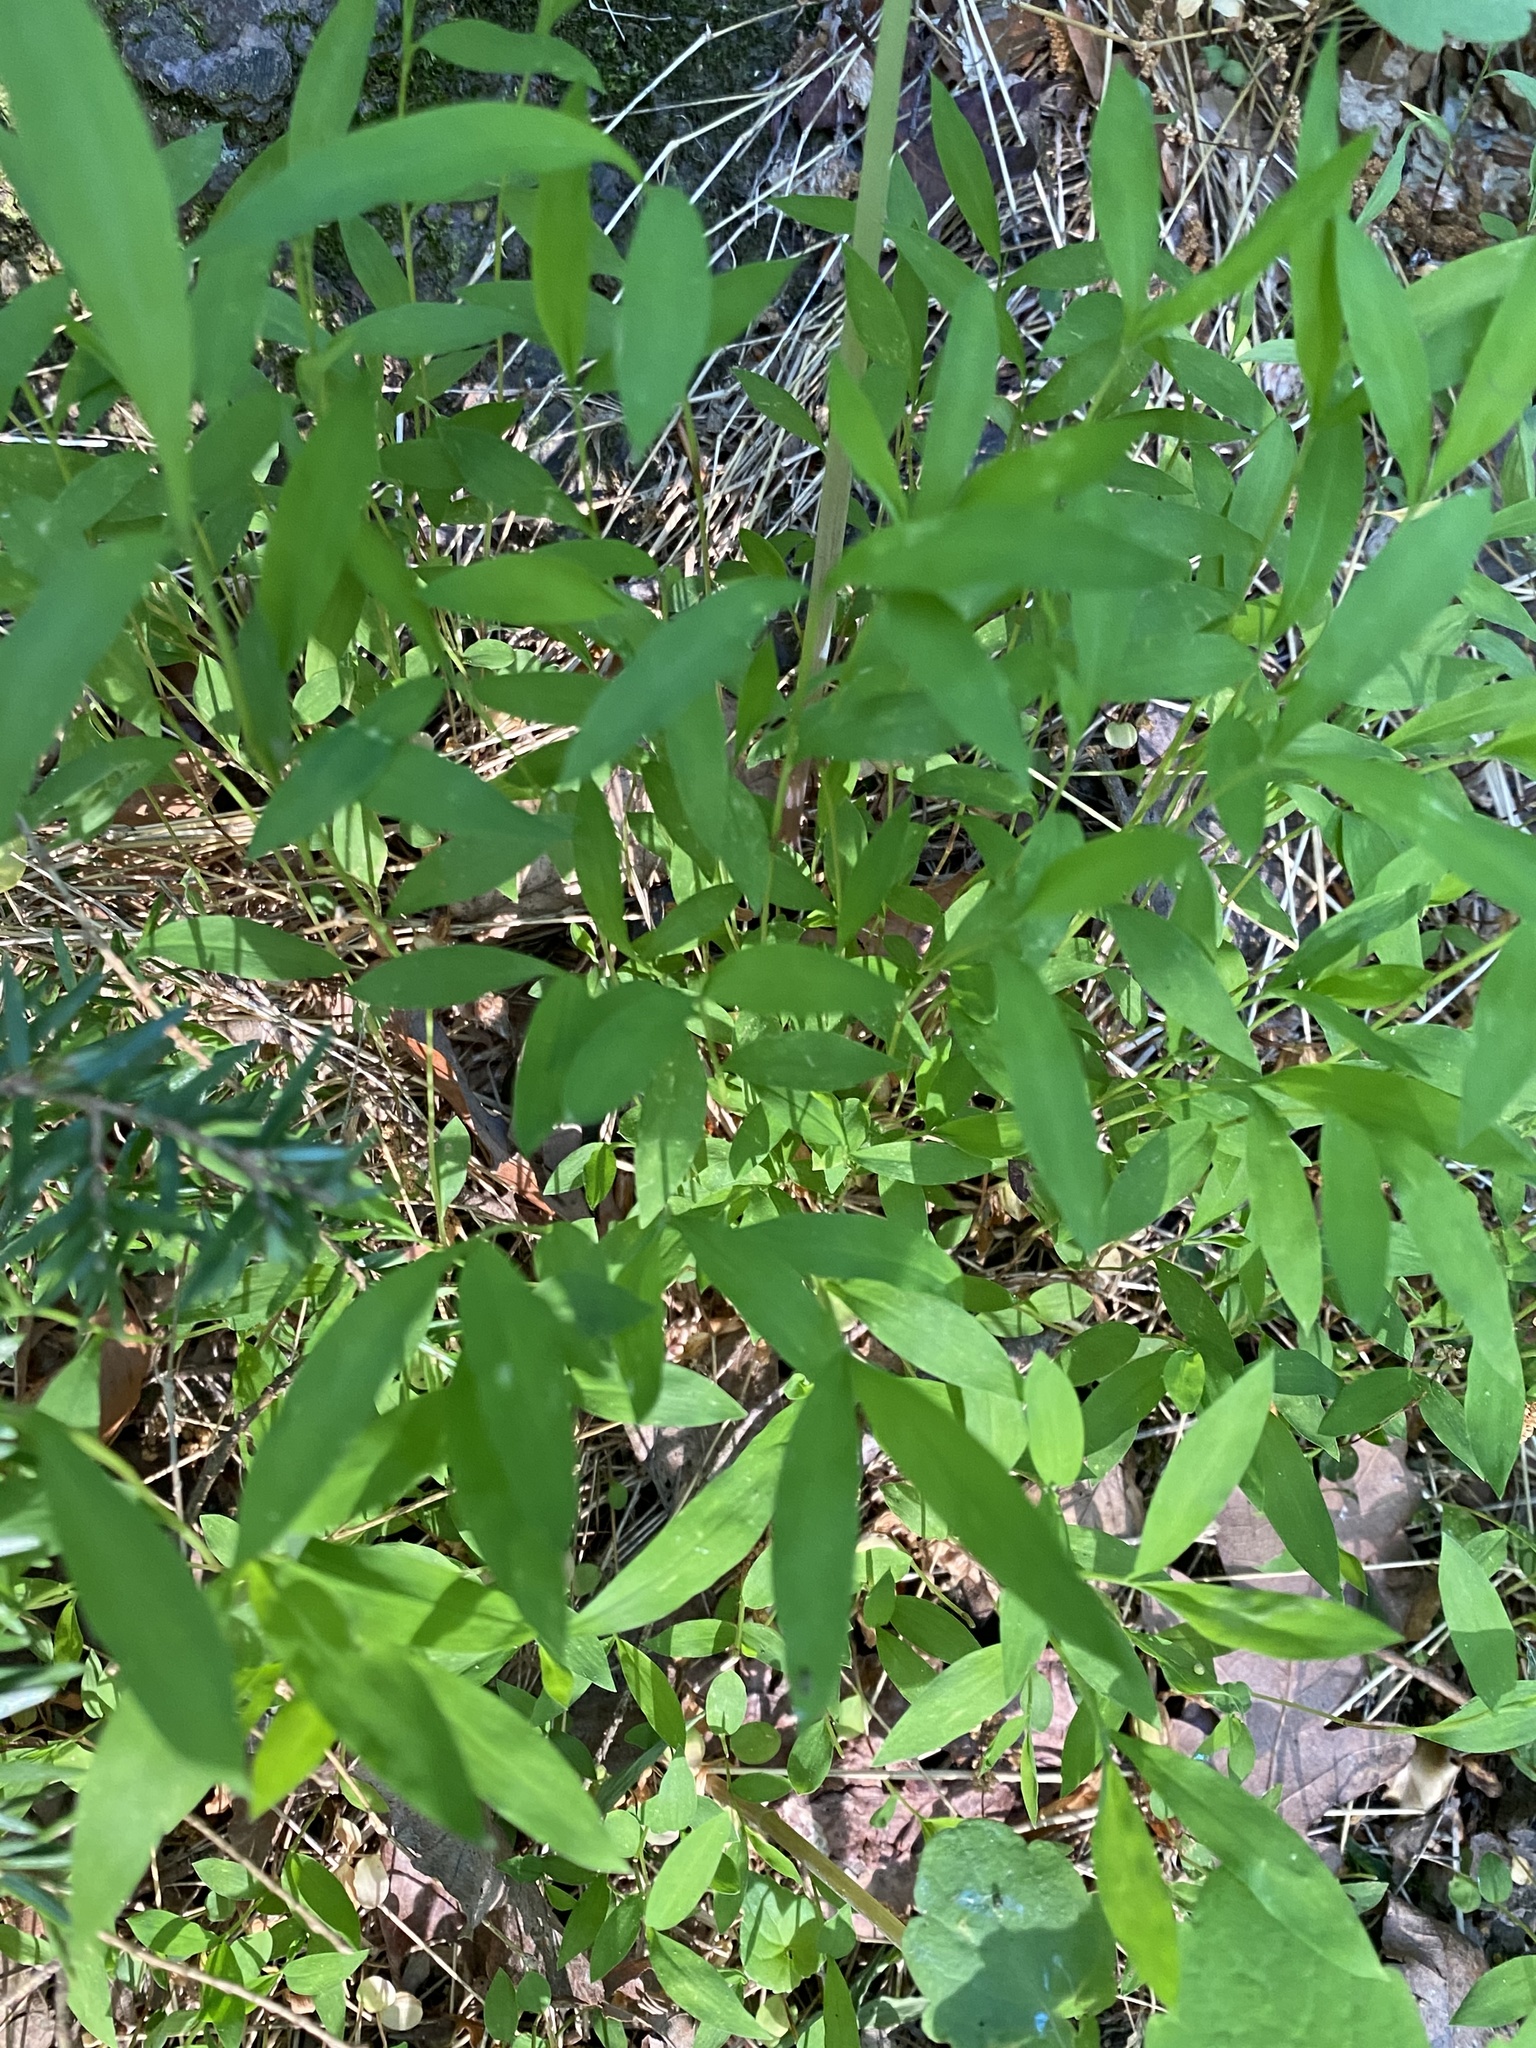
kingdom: Plantae
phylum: Tracheophyta
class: Liliopsida
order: Poales
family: Poaceae
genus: Microstegium
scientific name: Microstegium vimineum
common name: Japanese stiltgrass
